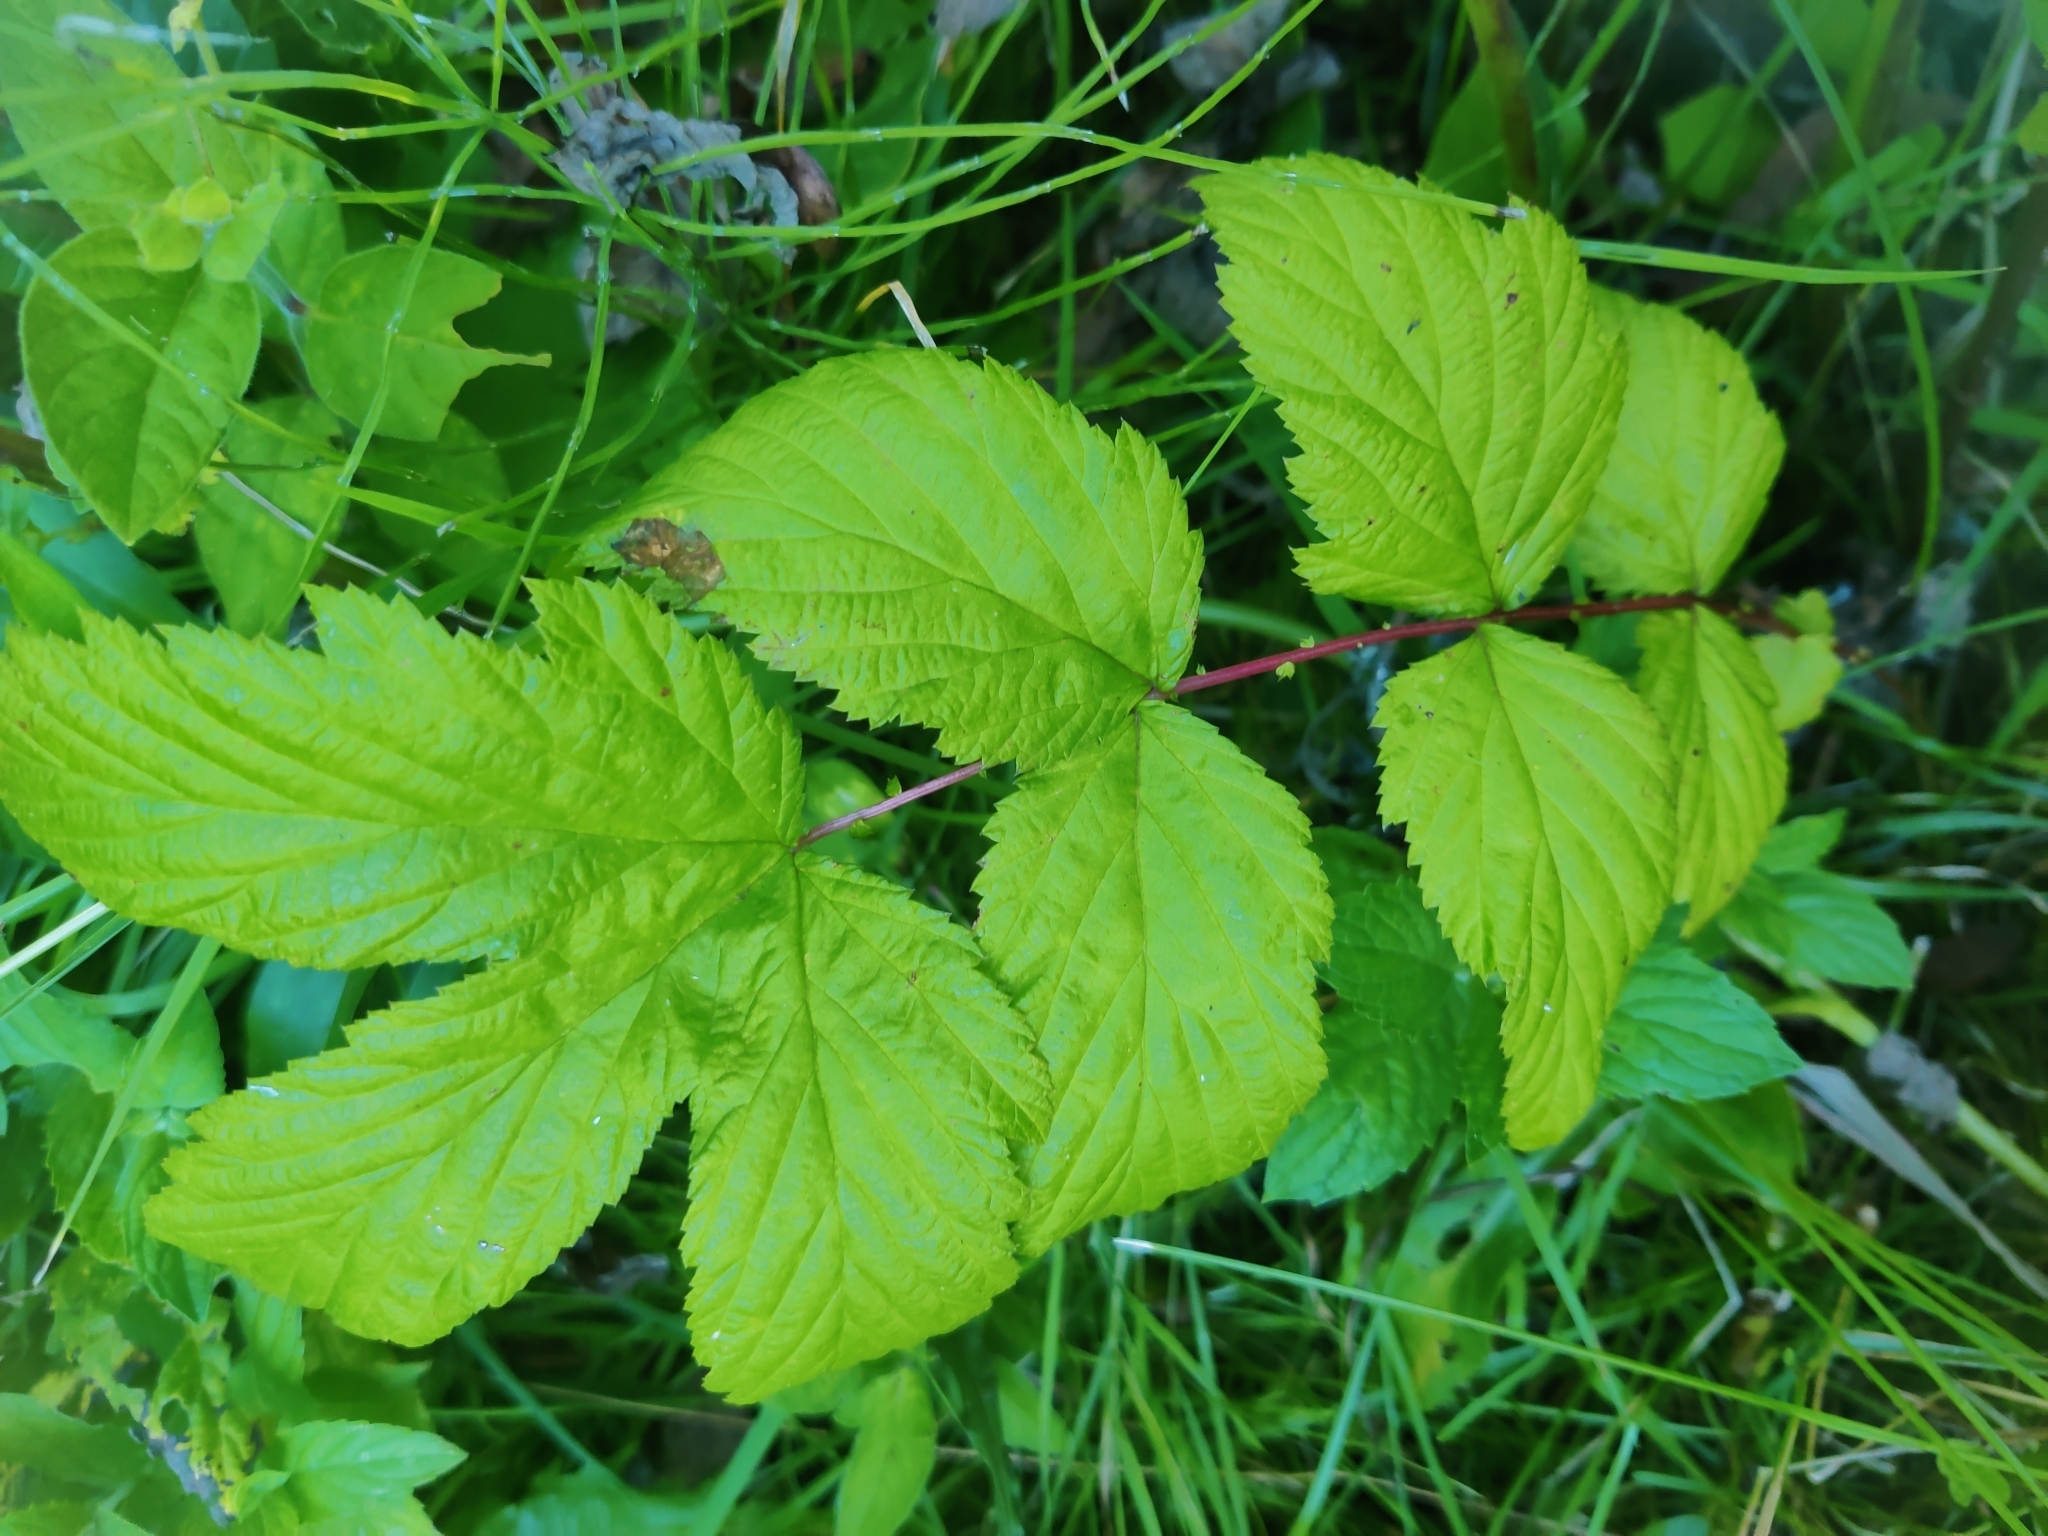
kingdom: Plantae
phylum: Tracheophyta
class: Magnoliopsida
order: Rosales
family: Rosaceae
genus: Filipendula
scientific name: Filipendula ulmaria
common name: Meadowsweet
